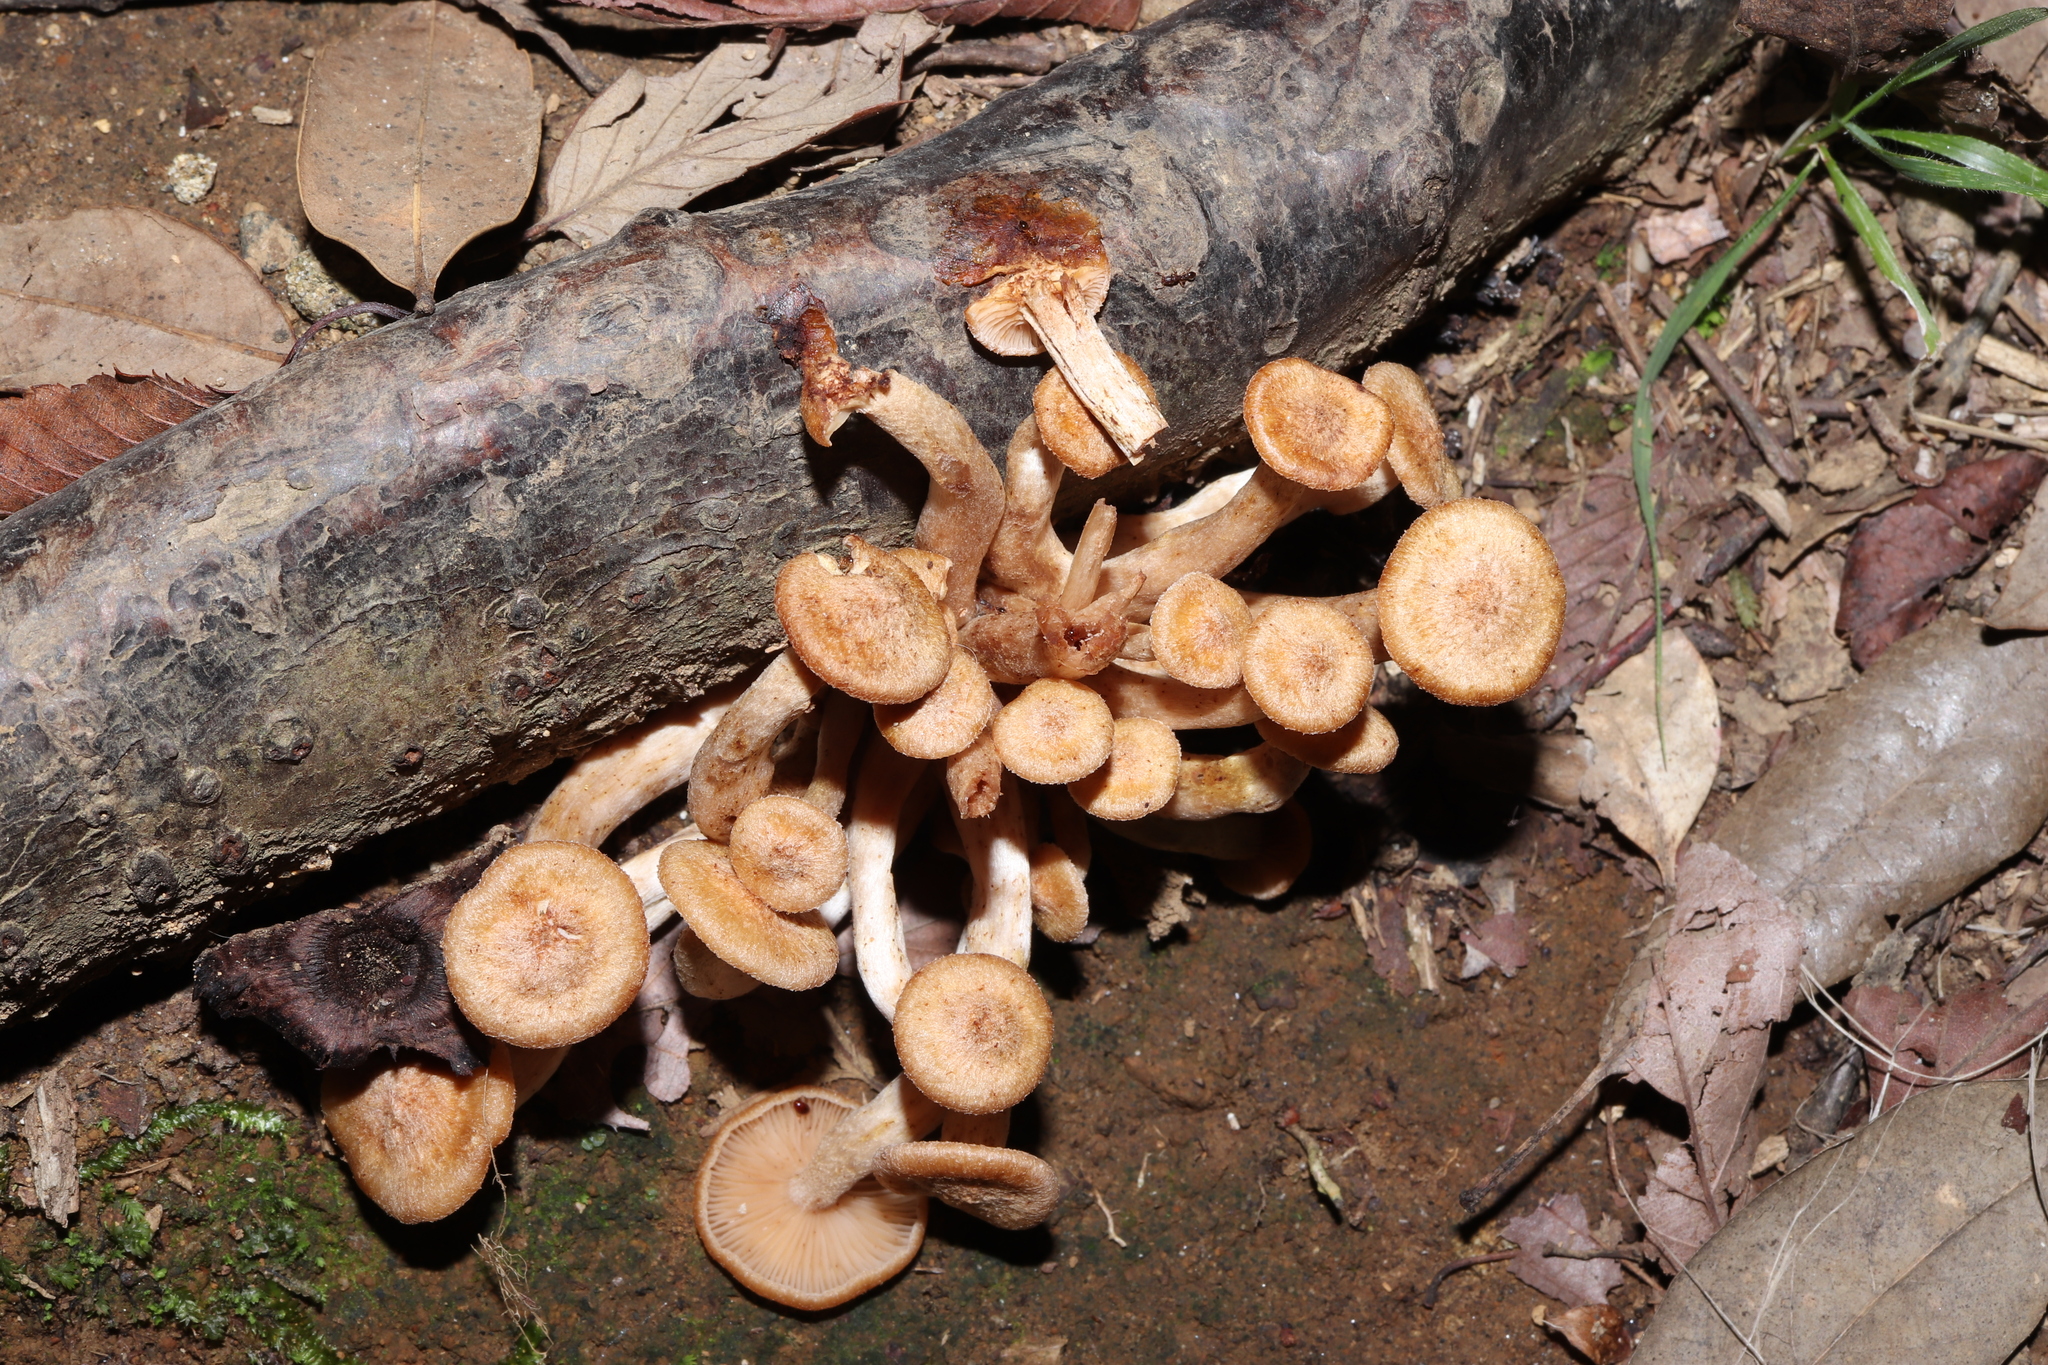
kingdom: Fungi
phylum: Basidiomycota
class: Agaricomycetes
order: Agaricales
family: Physalacriaceae
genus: Desarmillaria
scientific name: Desarmillaria tabescens
